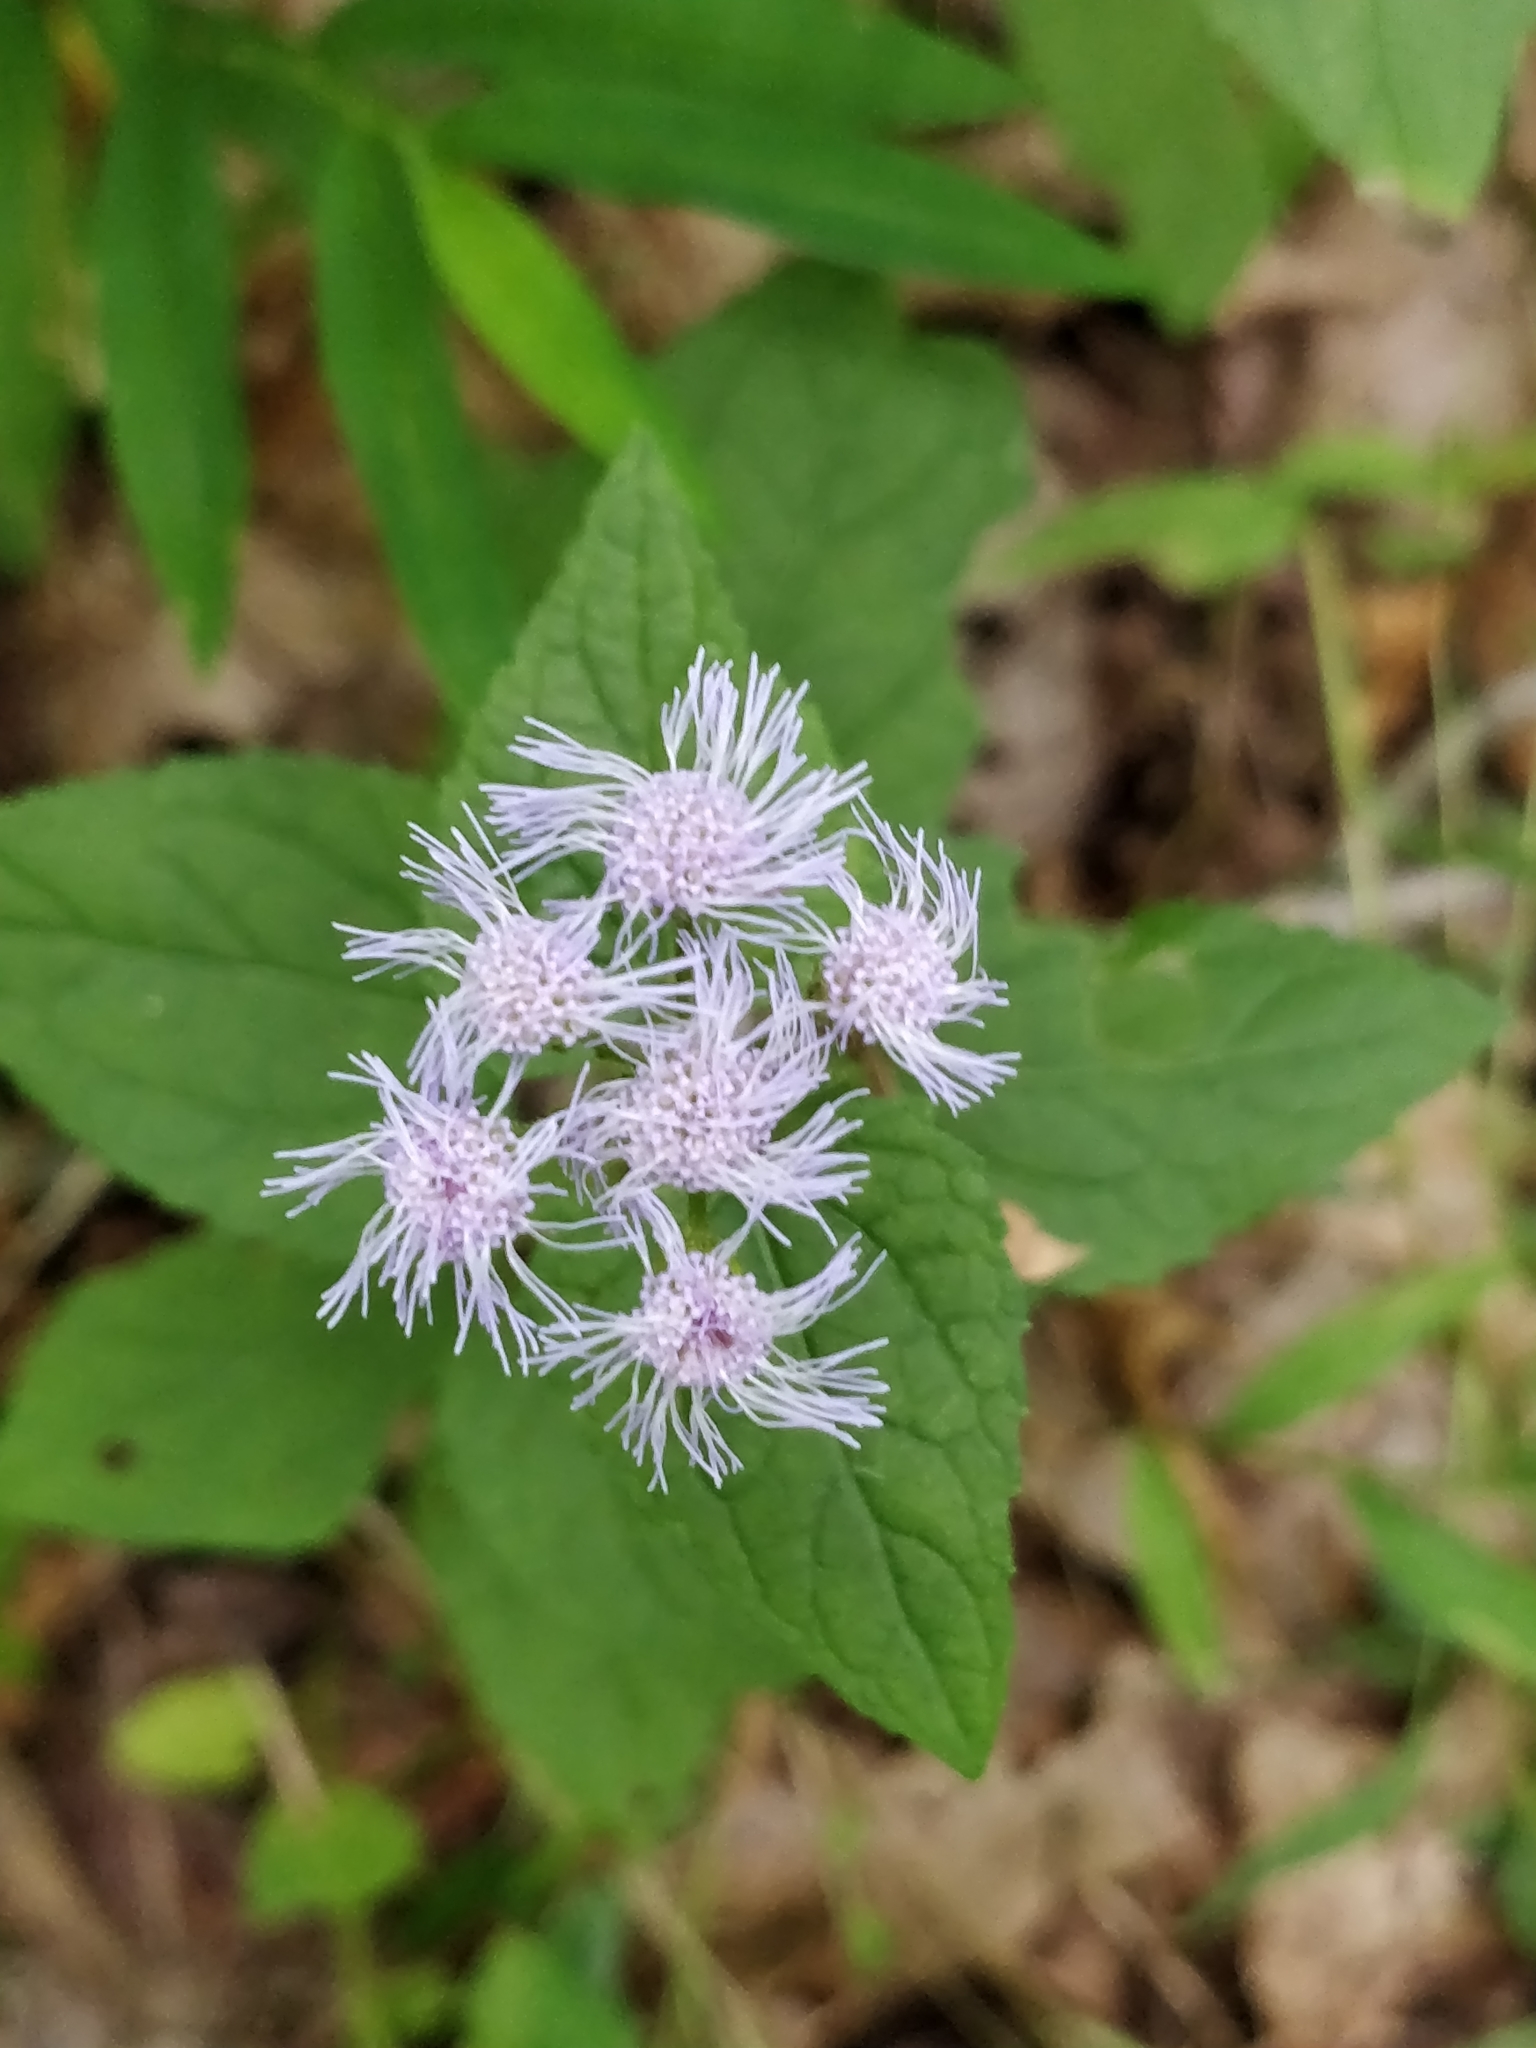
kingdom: Plantae
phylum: Tracheophyta
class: Magnoliopsida
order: Asterales
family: Asteraceae
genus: Conoclinium
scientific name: Conoclinium coelestinum
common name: Blue mistflower
